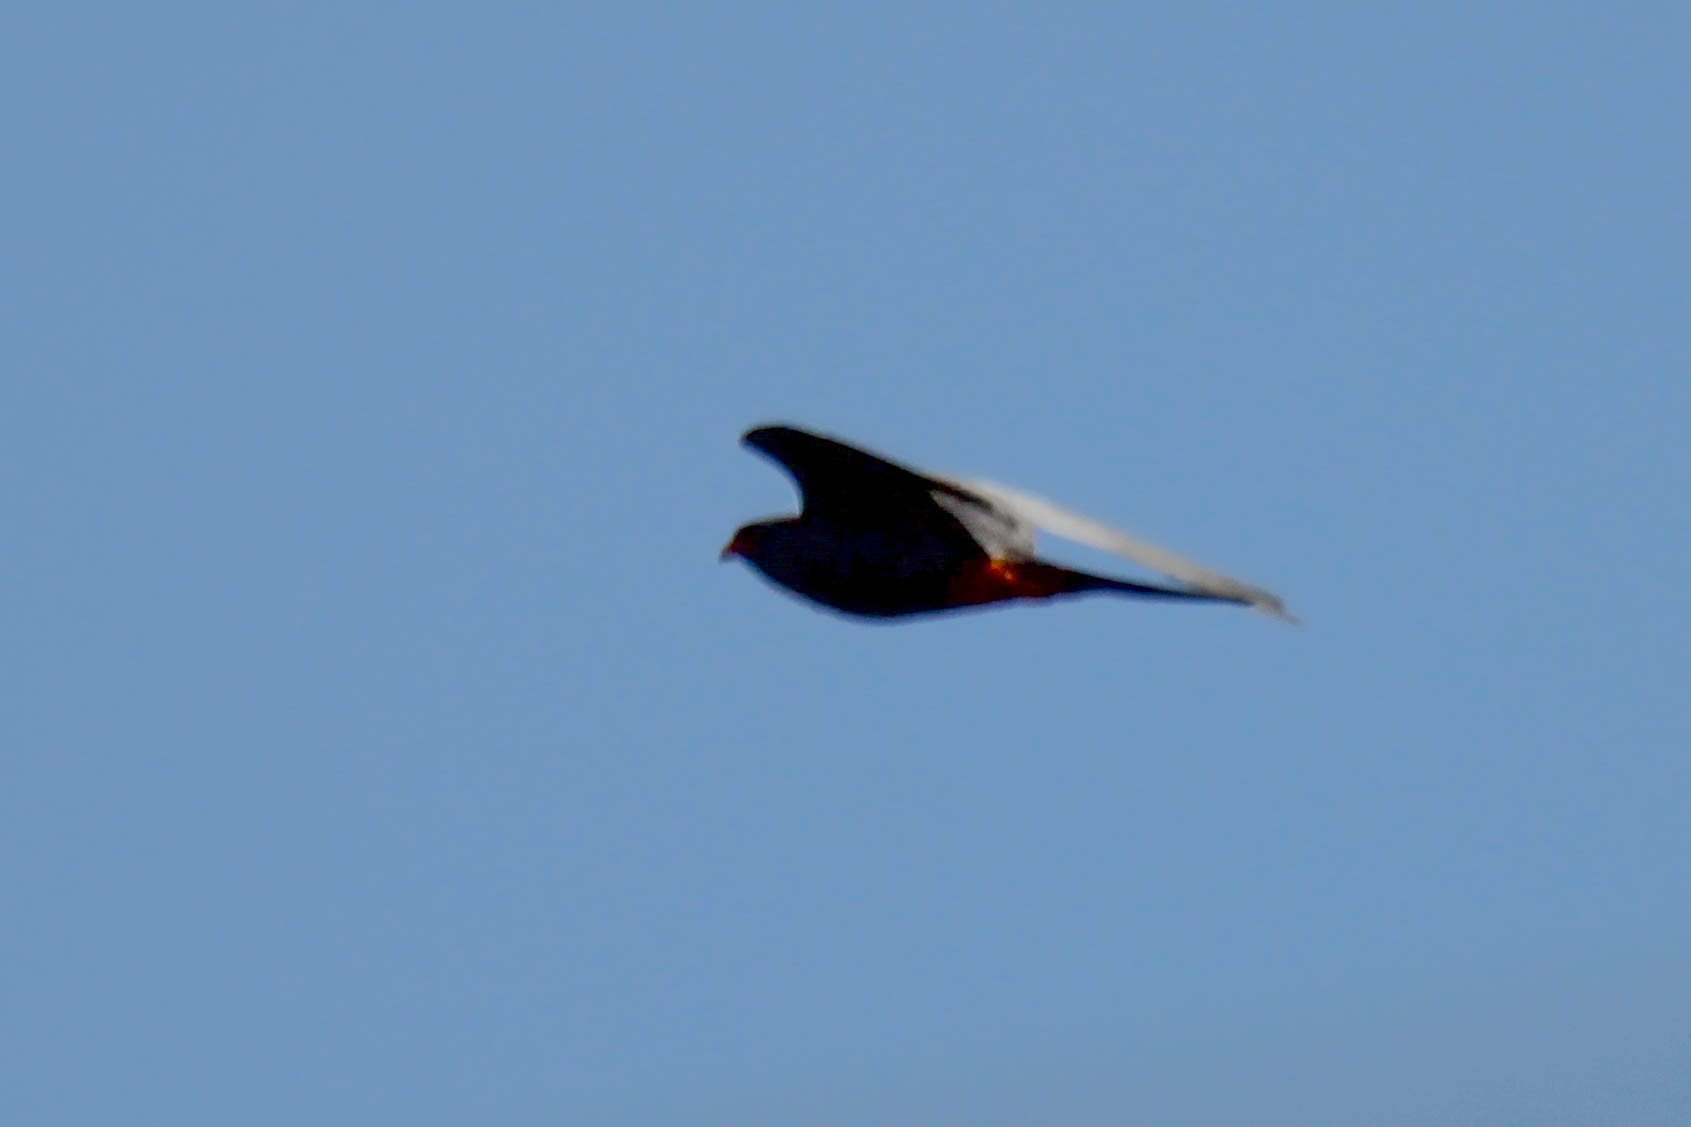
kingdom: Animalia
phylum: Chordata
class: Aves
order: Falconiformes
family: Falconidae
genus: Falco
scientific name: Falco vespertinus
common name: Red-footed falcon
